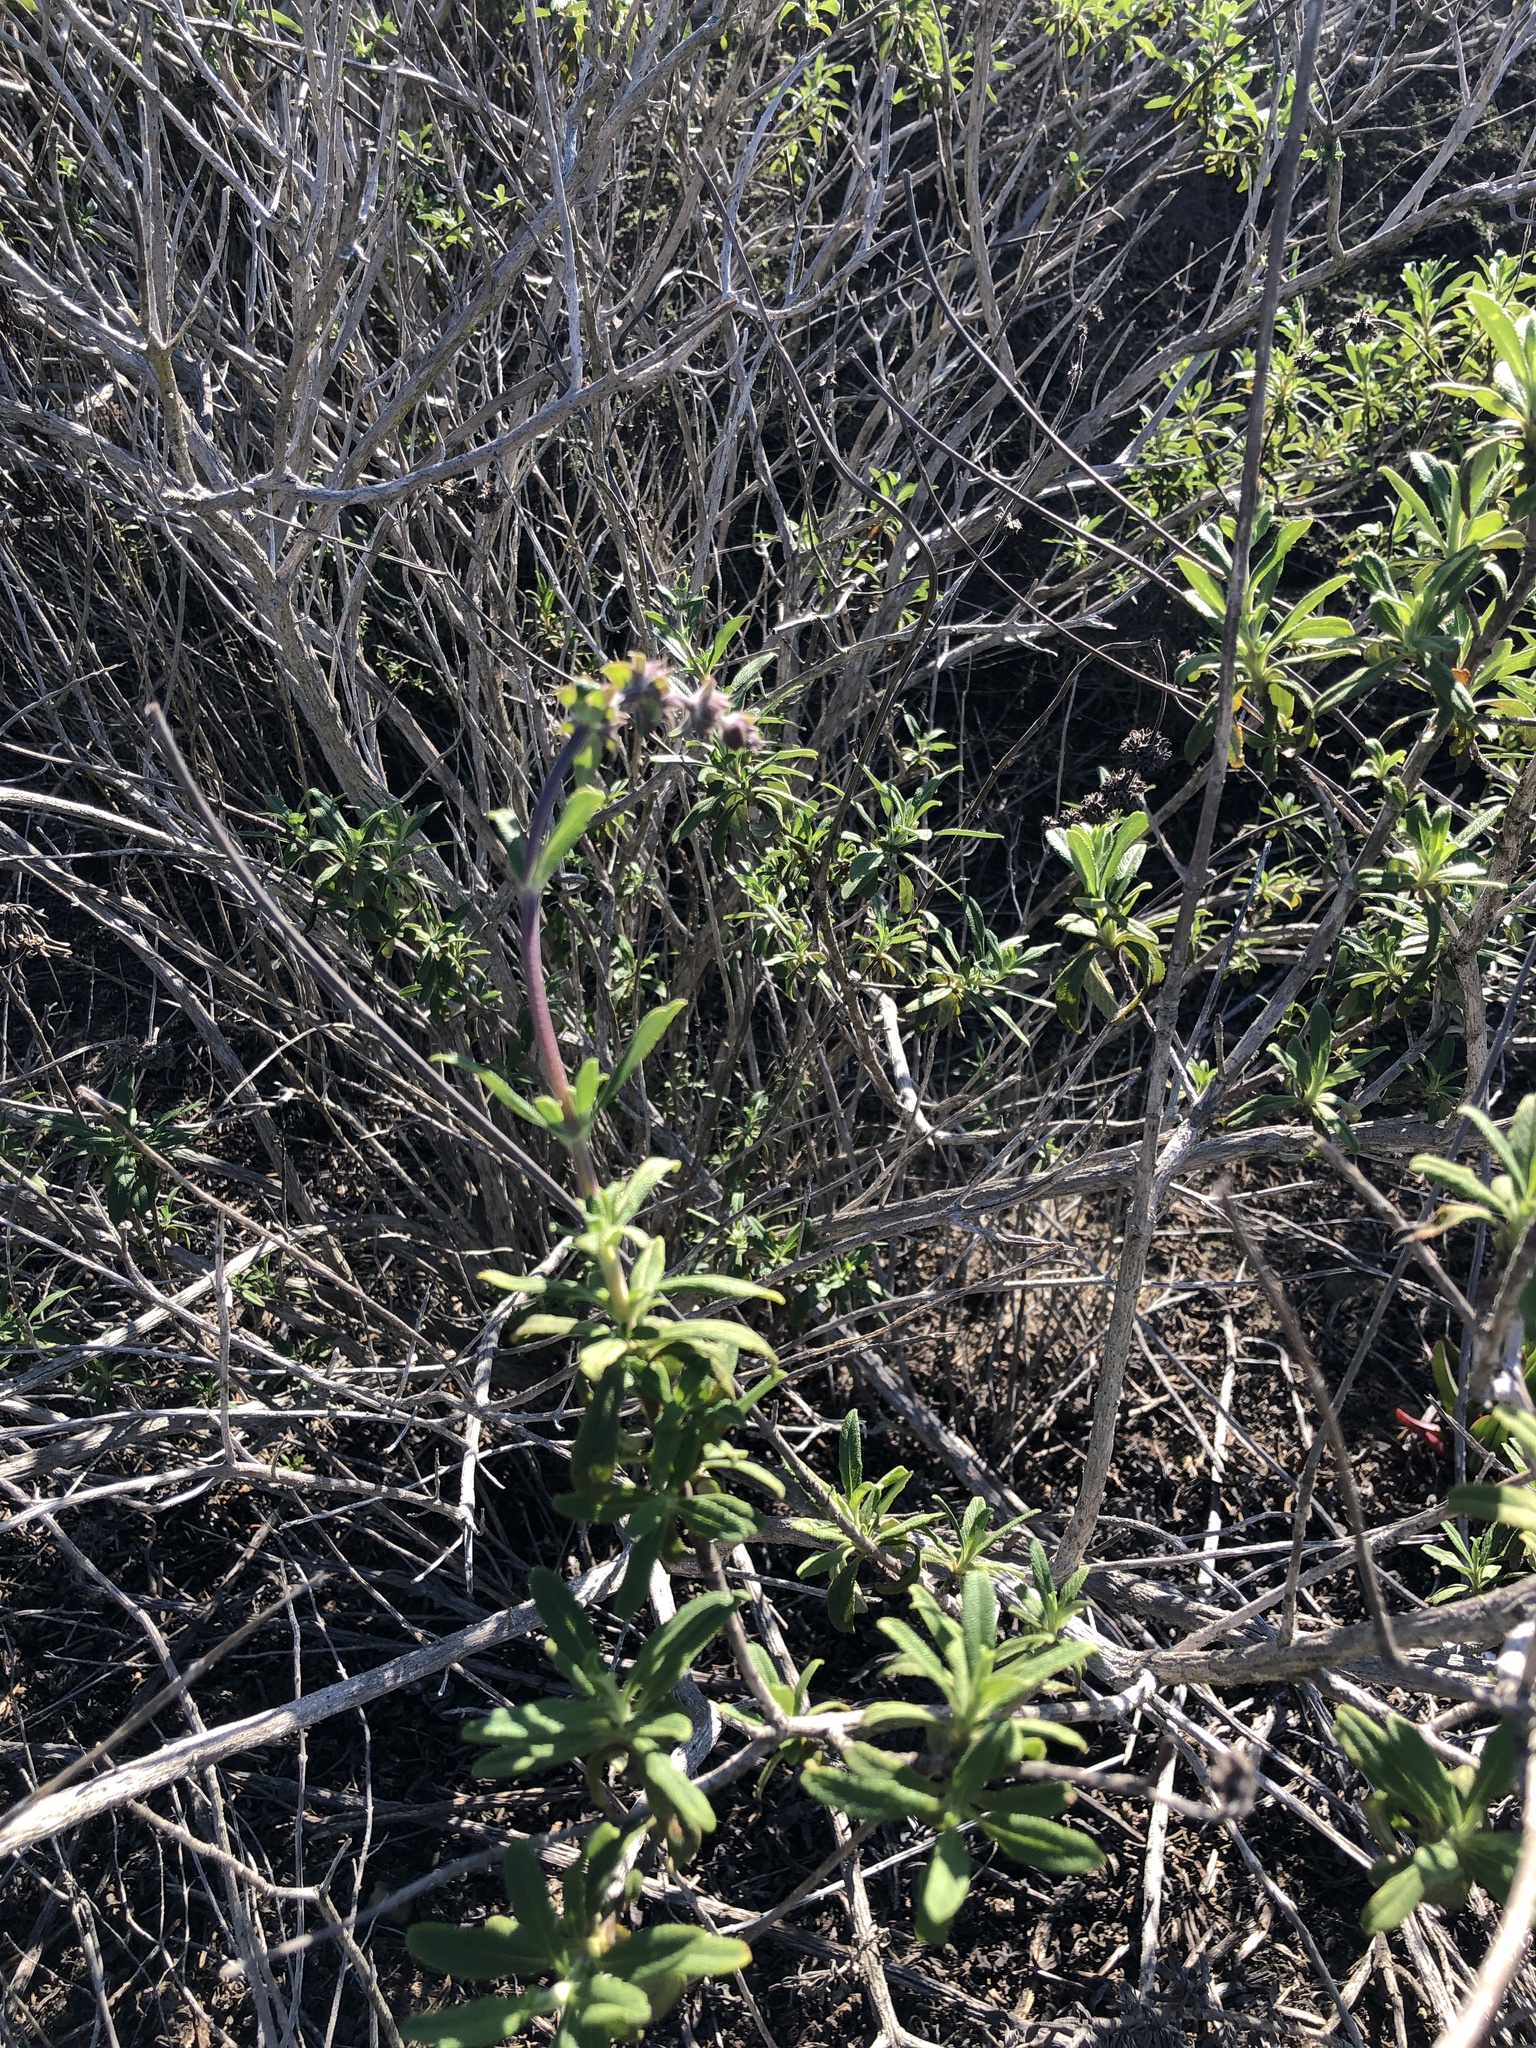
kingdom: Plantae
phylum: Tracheophyta
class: Magnoliopsida
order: Lamiales
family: Lamiaceae
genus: Salvia
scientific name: Salvia mellifera
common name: Black sage
